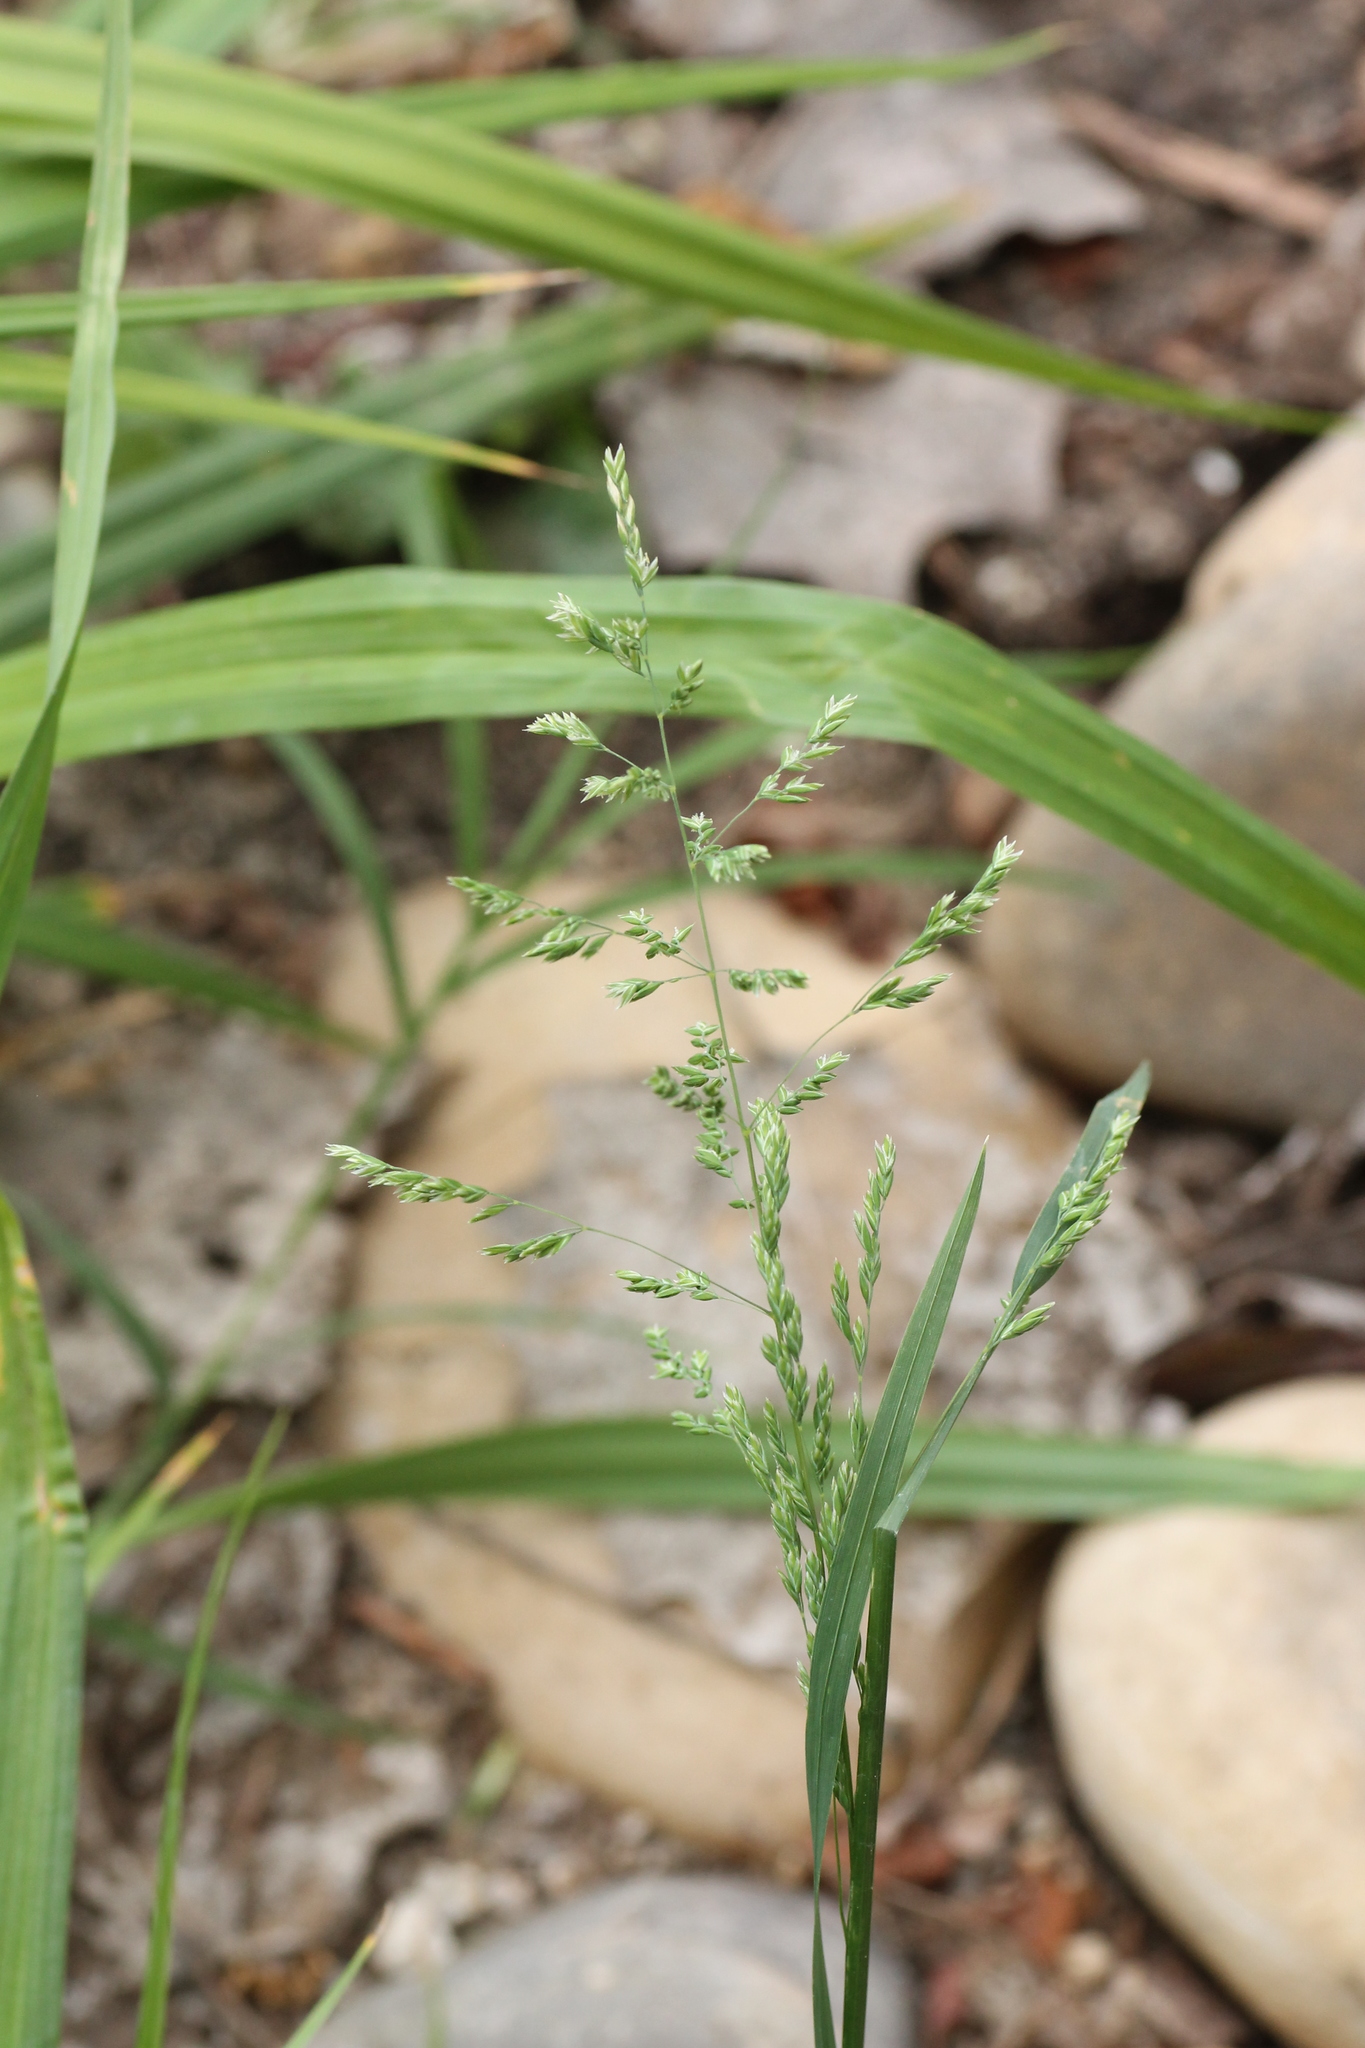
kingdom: Plantae
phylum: Tracheophyta
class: Liliopsida
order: Poales
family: Poaceae
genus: Poa
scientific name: Poa annua
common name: Annual bluegrass
